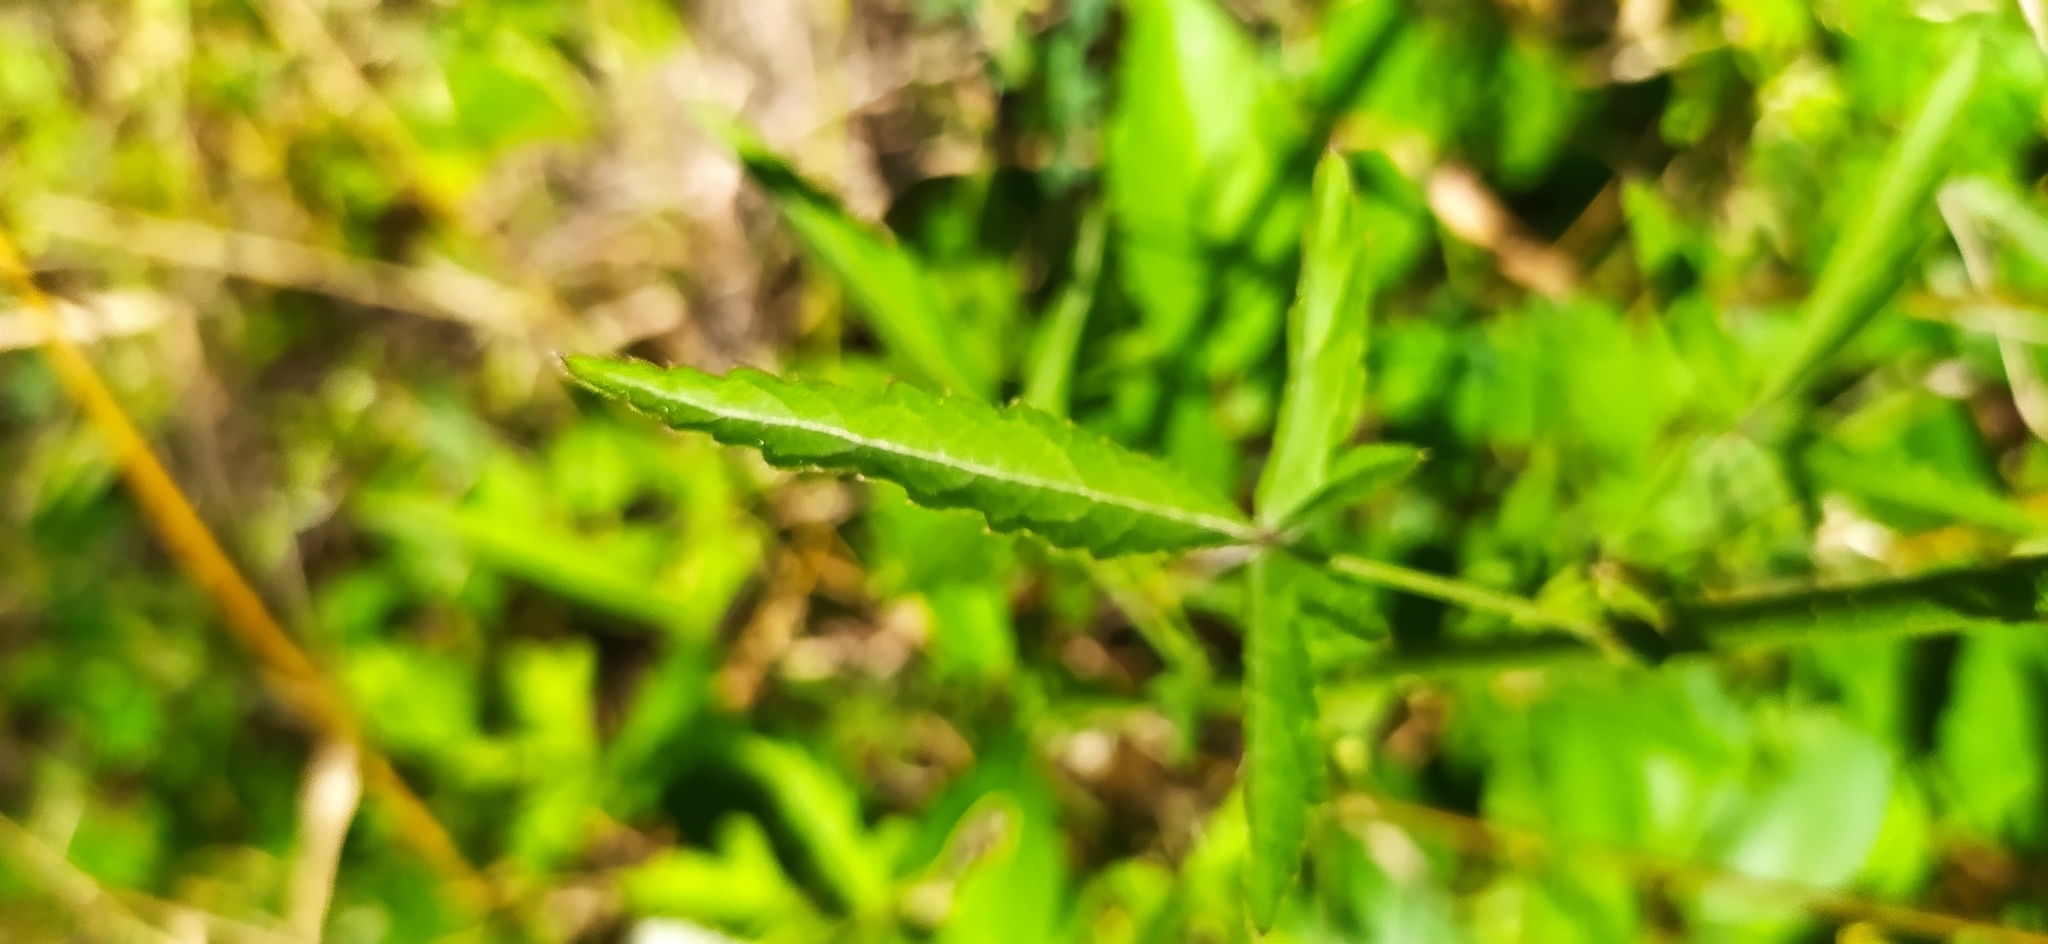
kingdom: Plantae
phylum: Tracheophyta
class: Magnoliopsida
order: Malvales
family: Malvaceae
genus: Althaea
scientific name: Althaea cannabina
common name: Palm-leaf marshmallow
